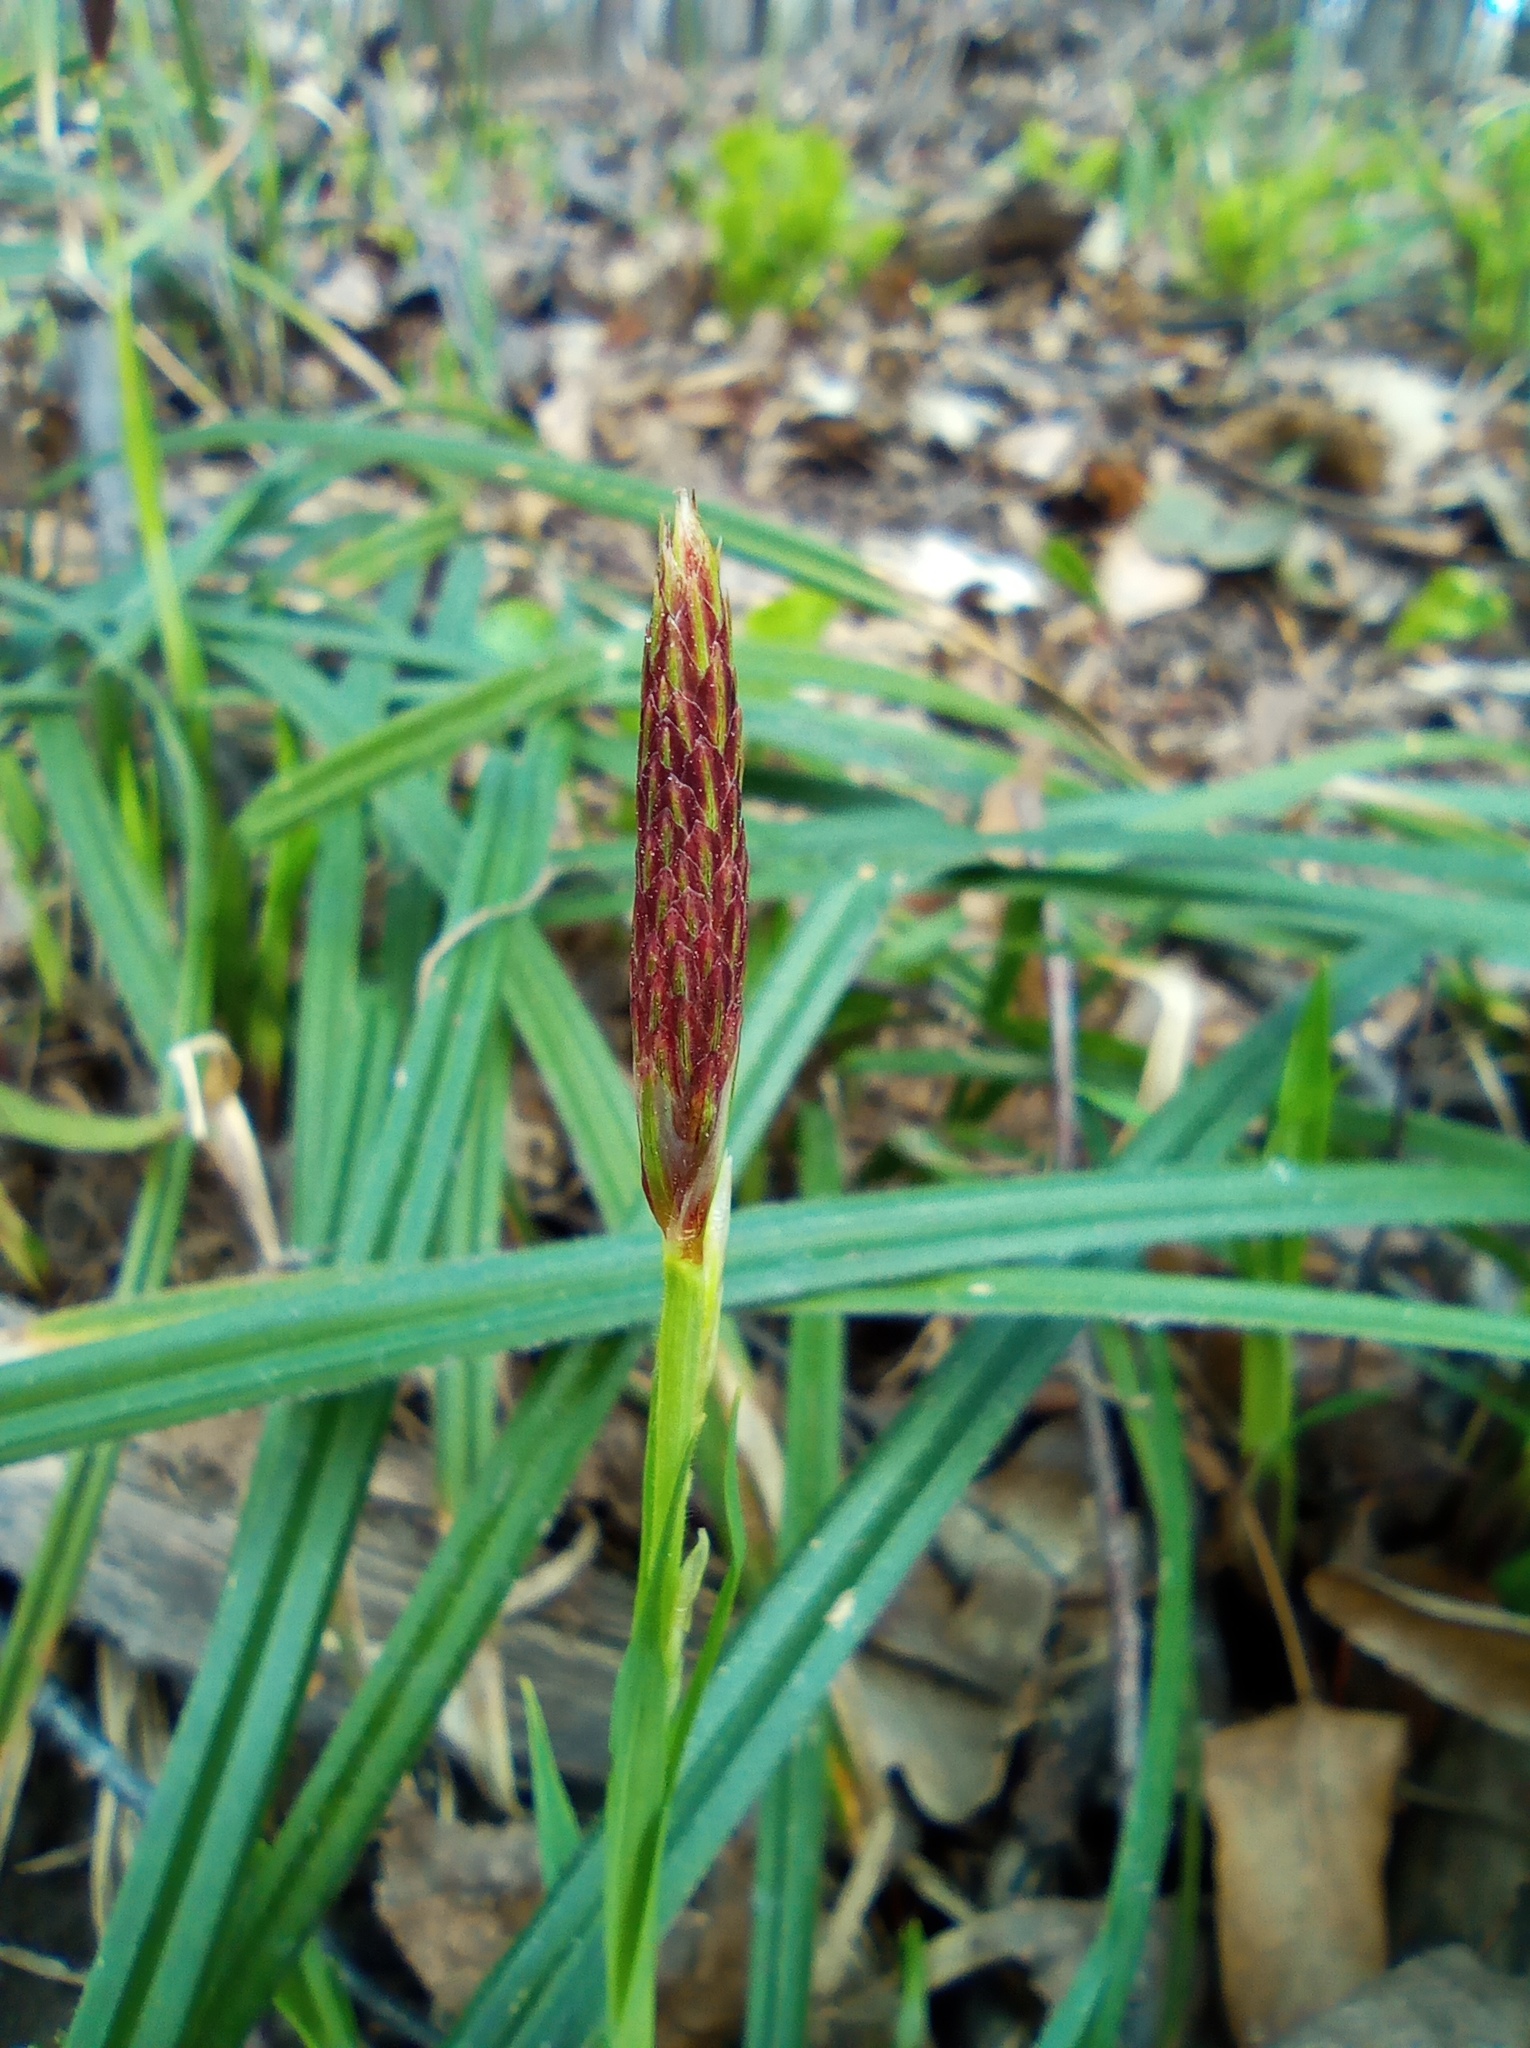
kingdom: Plantae
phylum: Tracheophyta
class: Liliopsida
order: Poales
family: Cyperaceae
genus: Carex
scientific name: Carex pilosa
